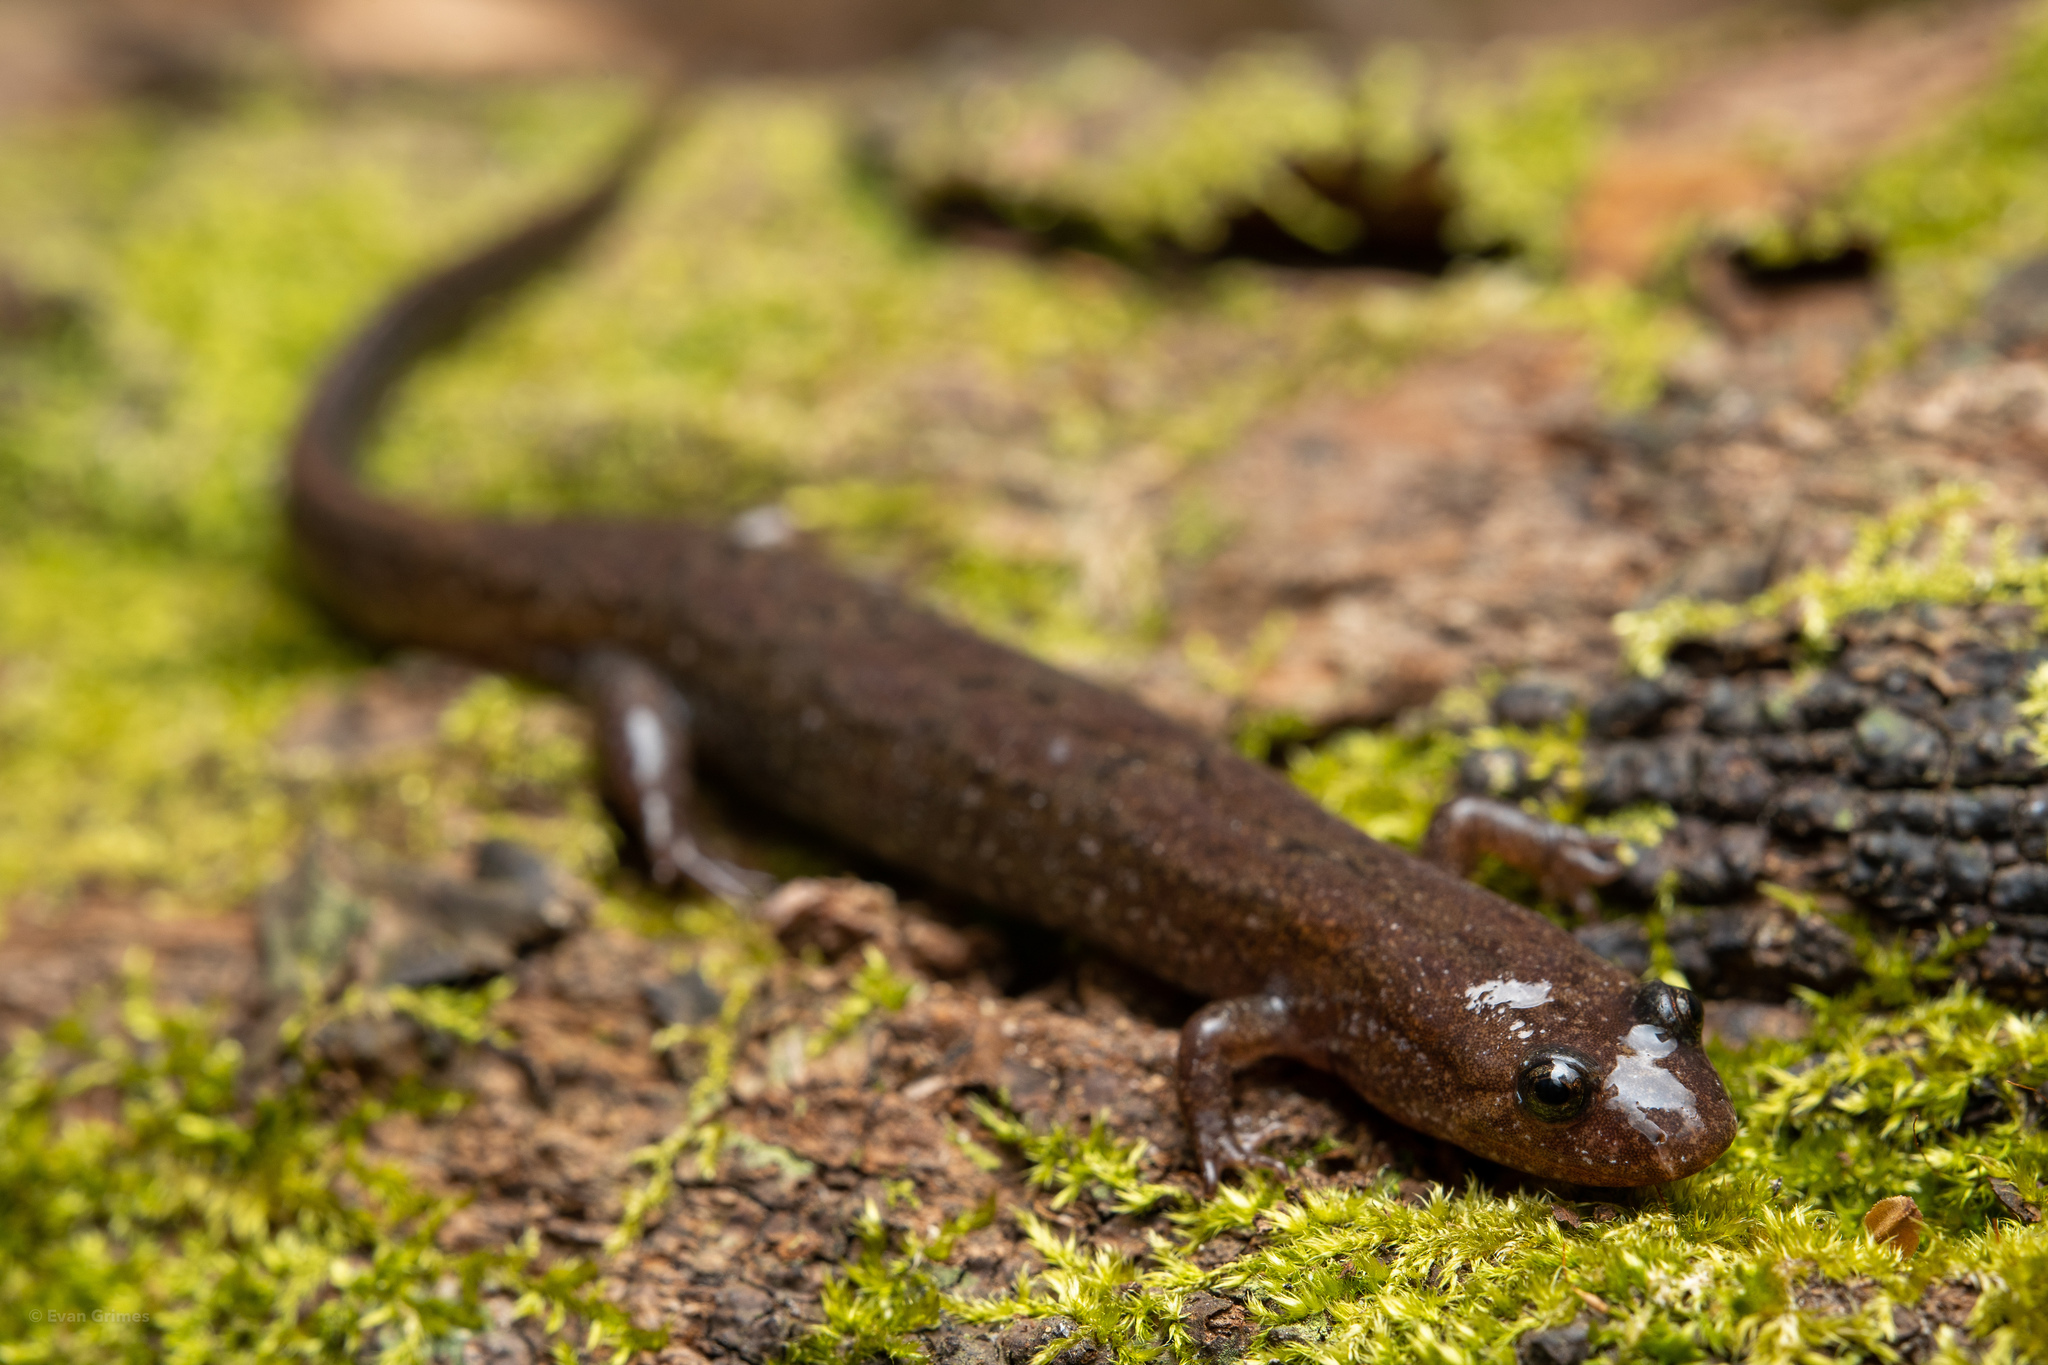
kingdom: Animalia
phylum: Chordata
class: Amphibia
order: Caudata
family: Plethodontidae
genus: Desmognathus
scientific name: Desmognathus conanti
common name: Spotted dusky salamander
